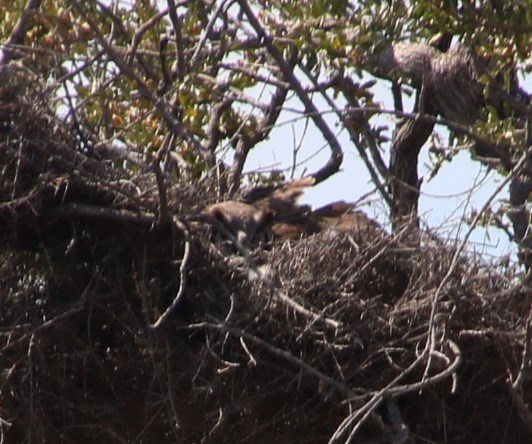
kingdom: Animalia
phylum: Chordata
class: Aves
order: Strigiformes
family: Strigidae
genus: Bubo
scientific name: Bubo lacteus
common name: Verreaux's eagle-owl
